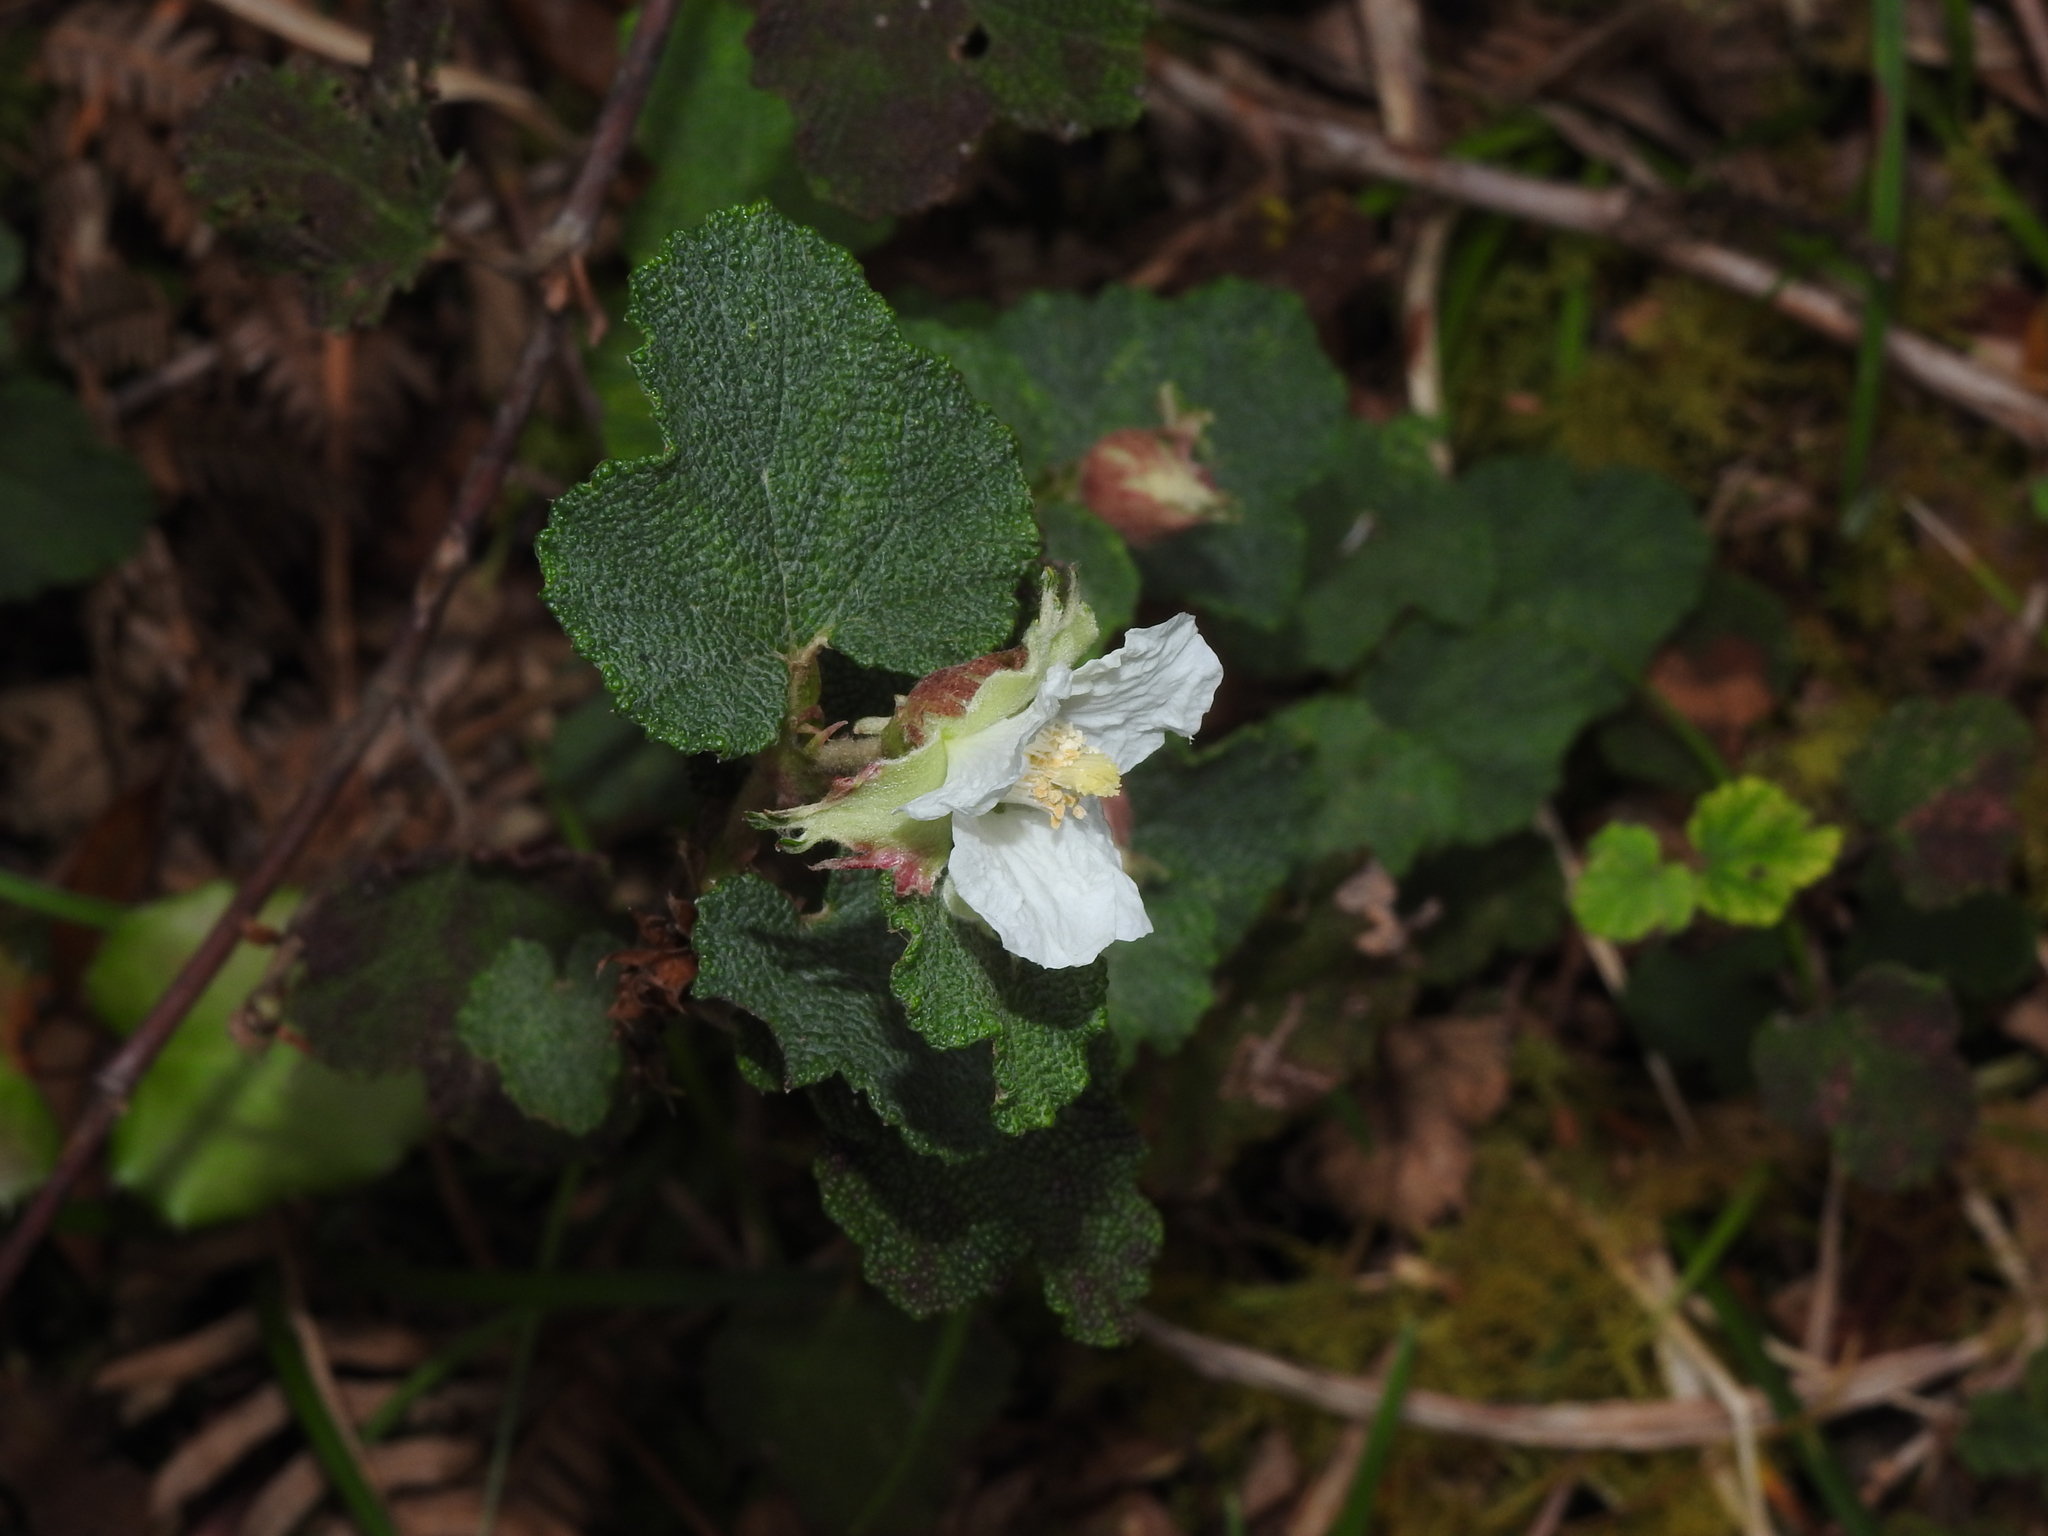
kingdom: Plantae
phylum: Tracheophyta
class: Magnoliopsida
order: Rosales
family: Rosaceae
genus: Rubus
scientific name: Rubus rolfei
